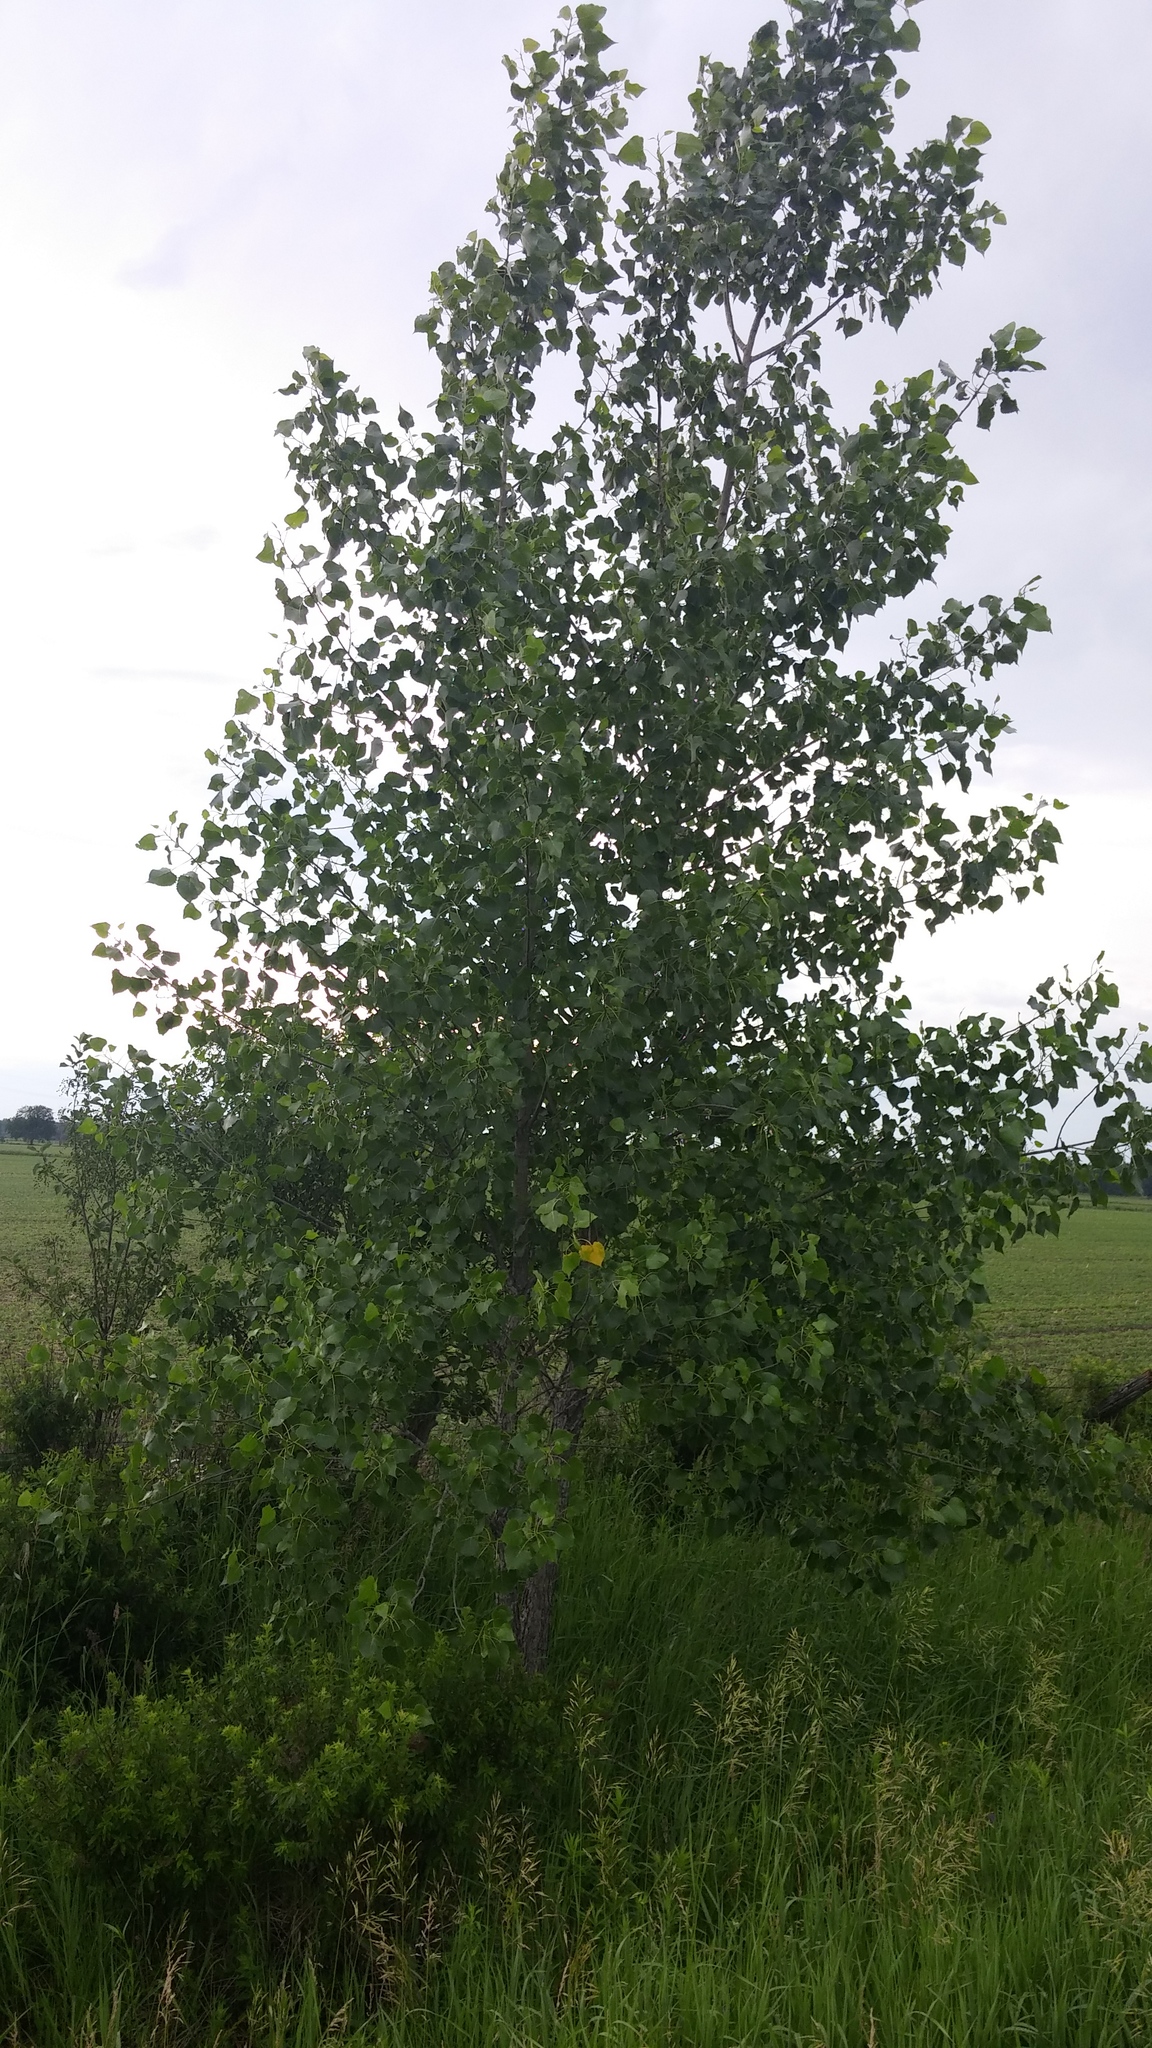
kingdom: Plantae
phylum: Tracheophyta
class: Magnoliopsida
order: Malpighiales
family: Salicaceae
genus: Populus
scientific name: Populus deltoides
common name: Eastern cottonwood
